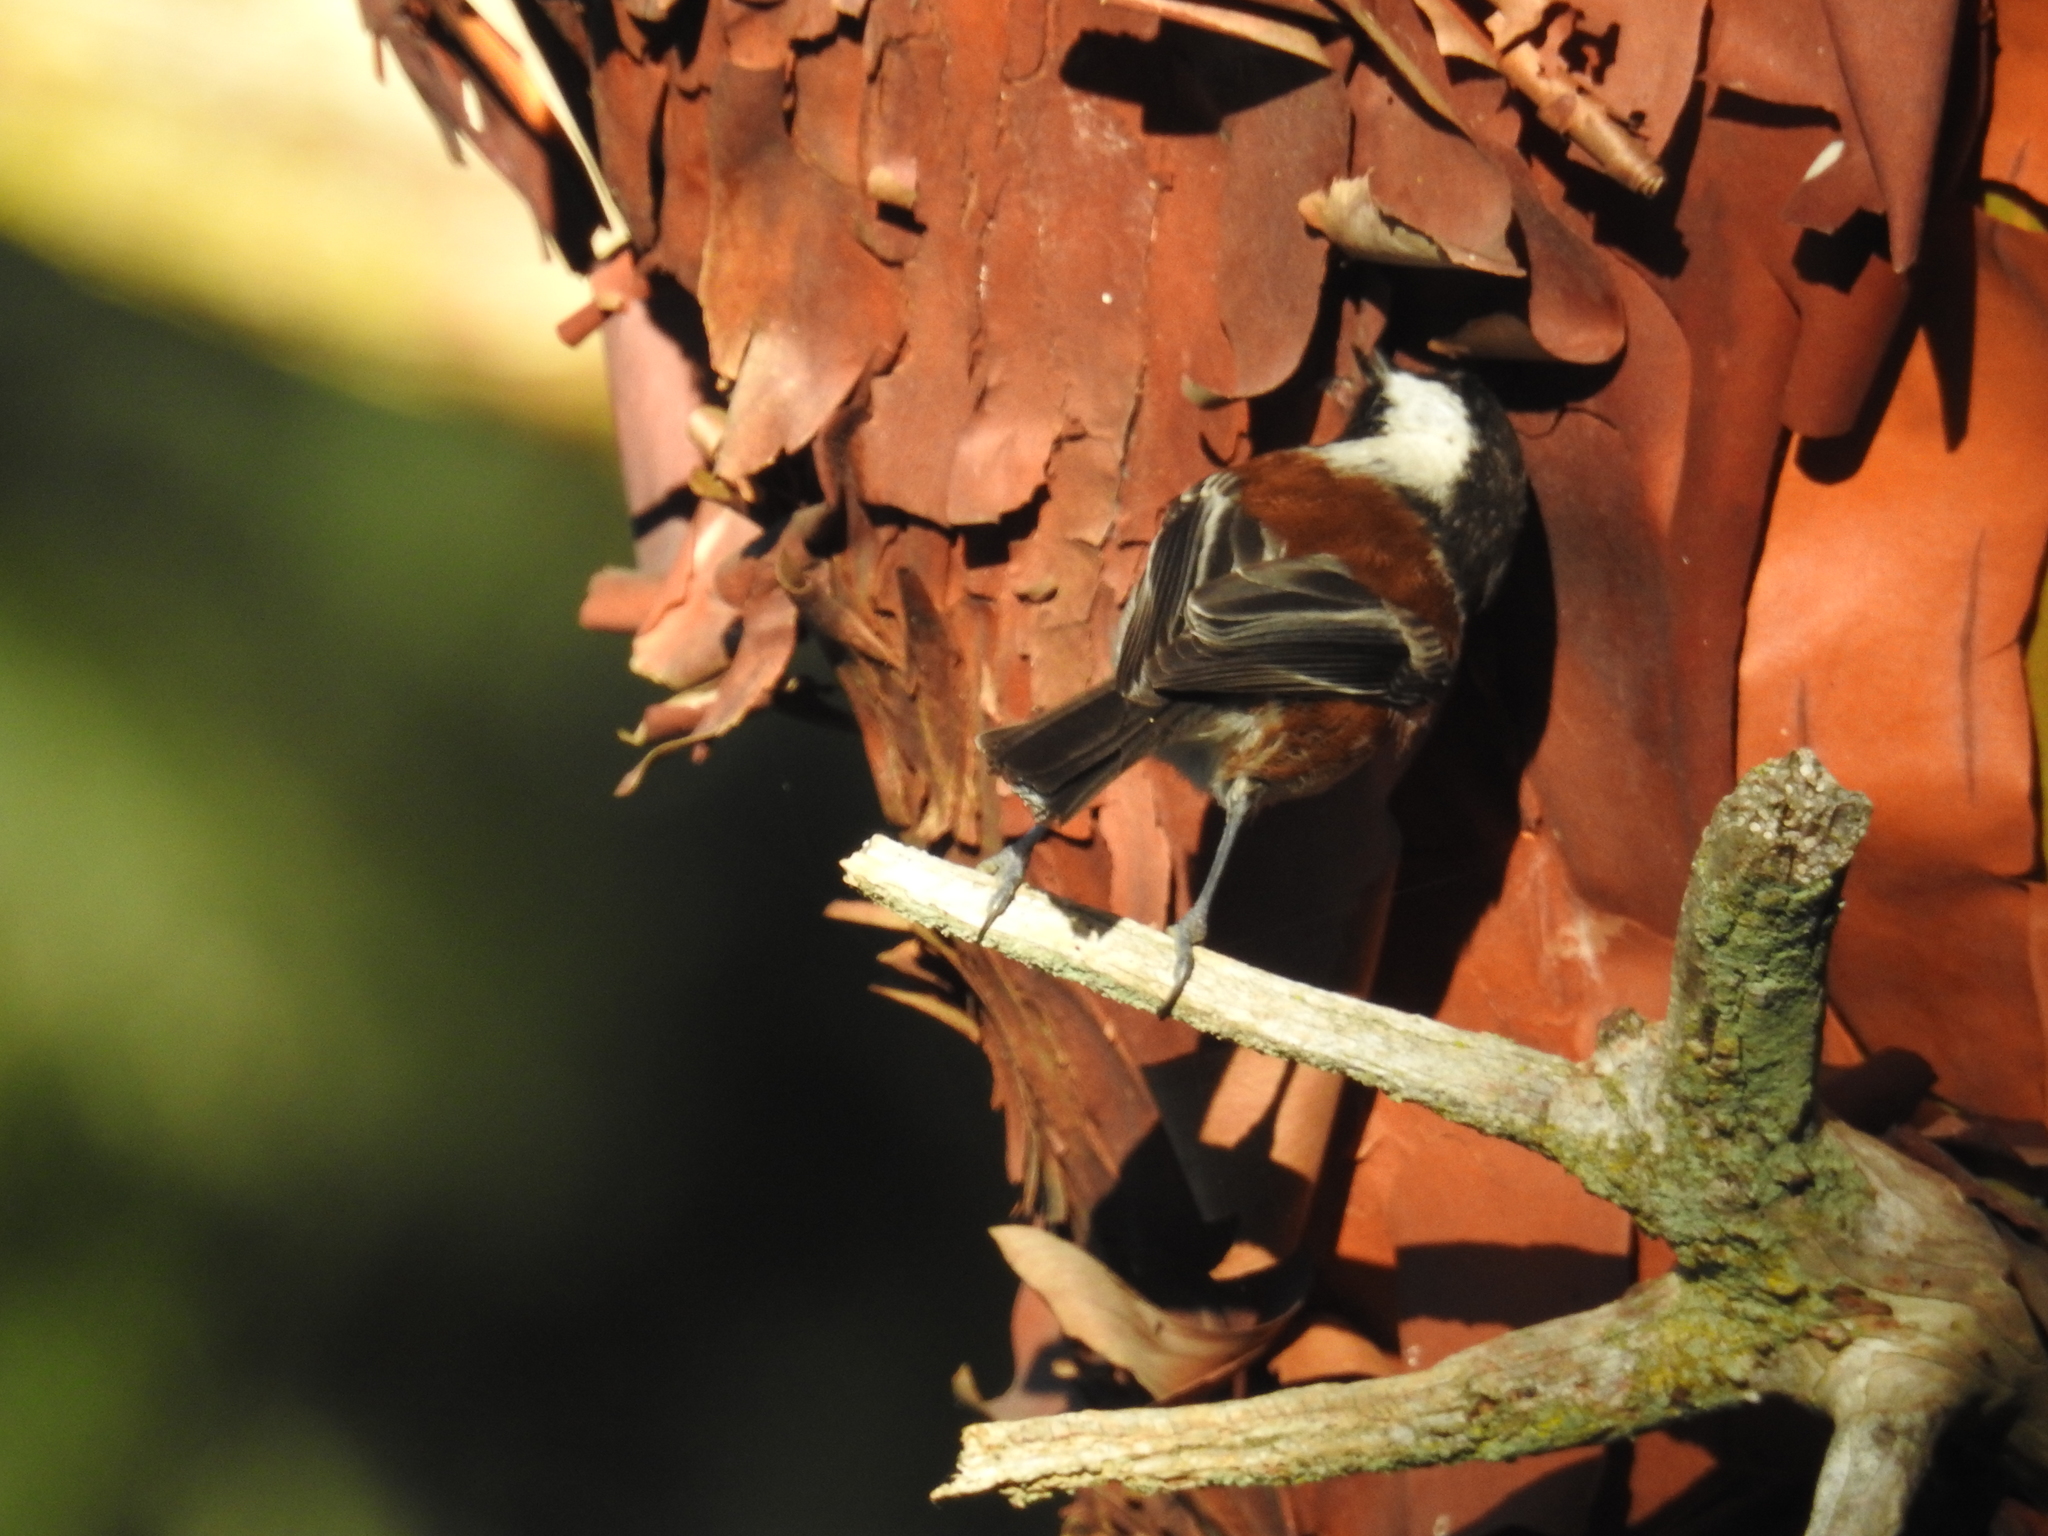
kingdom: Animalia
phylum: Chordata
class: Aves
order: Passeriformes
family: Paridae
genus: Poecile
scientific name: Poecile rufescens
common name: Chestnut-backed chickadee
